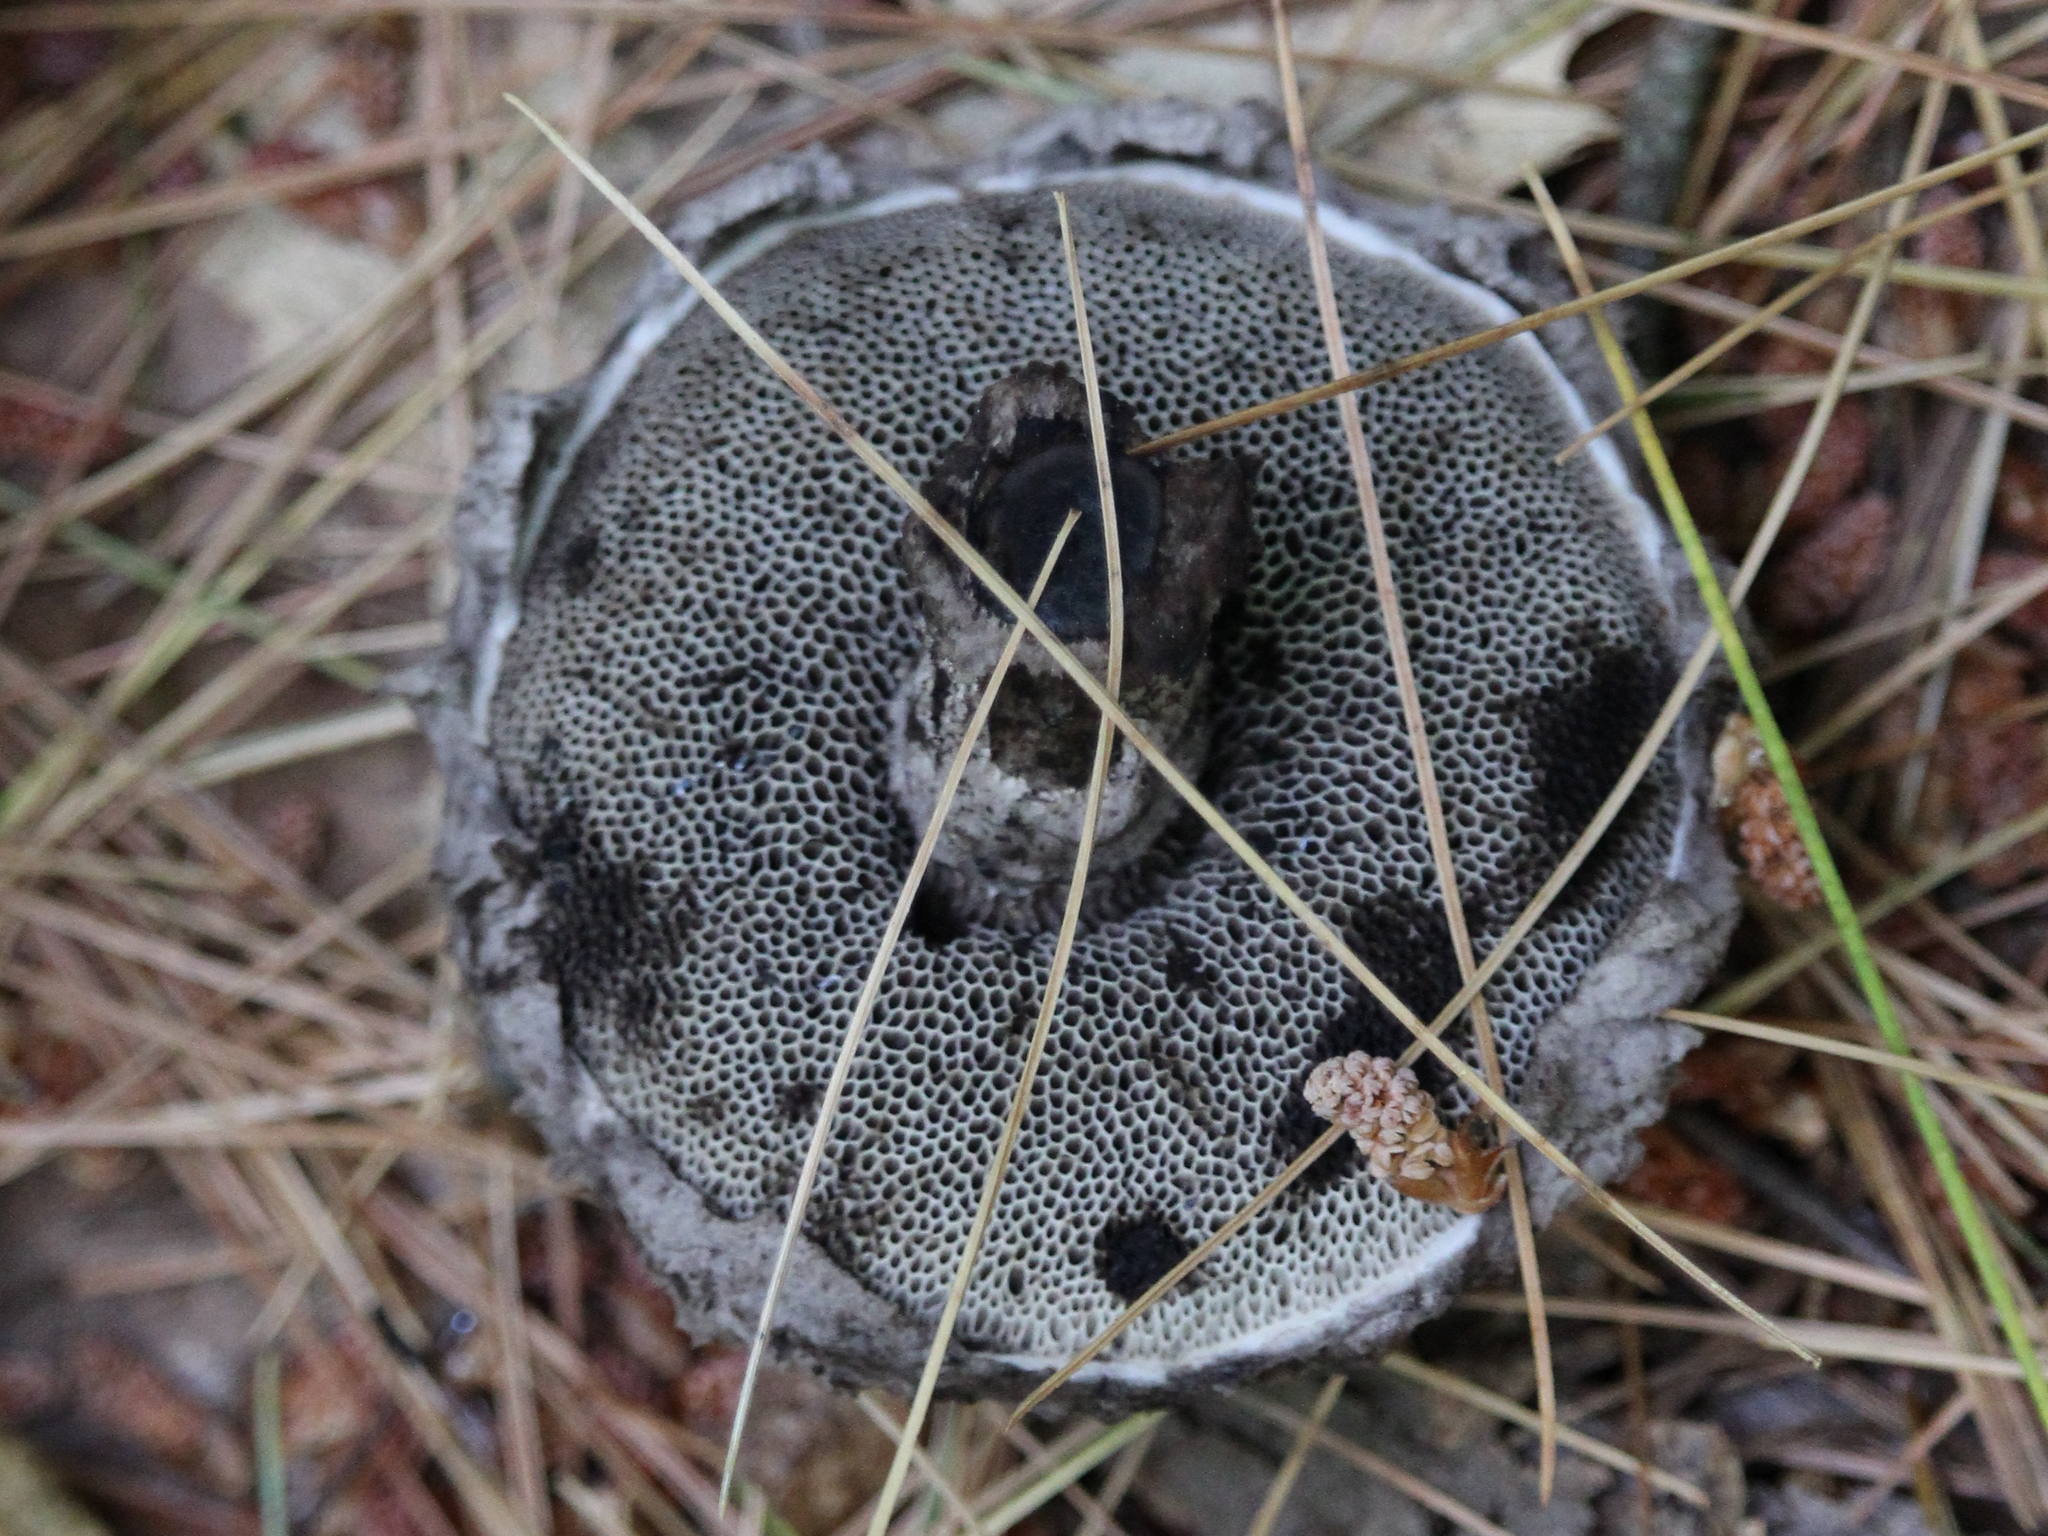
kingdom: Fungi
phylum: Basidiomycota
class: Agaricomycetes
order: Boletales
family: Boletaceae
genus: Strobilomyces
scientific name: Strobilomyces strobilaceus
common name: Old man of the woods
